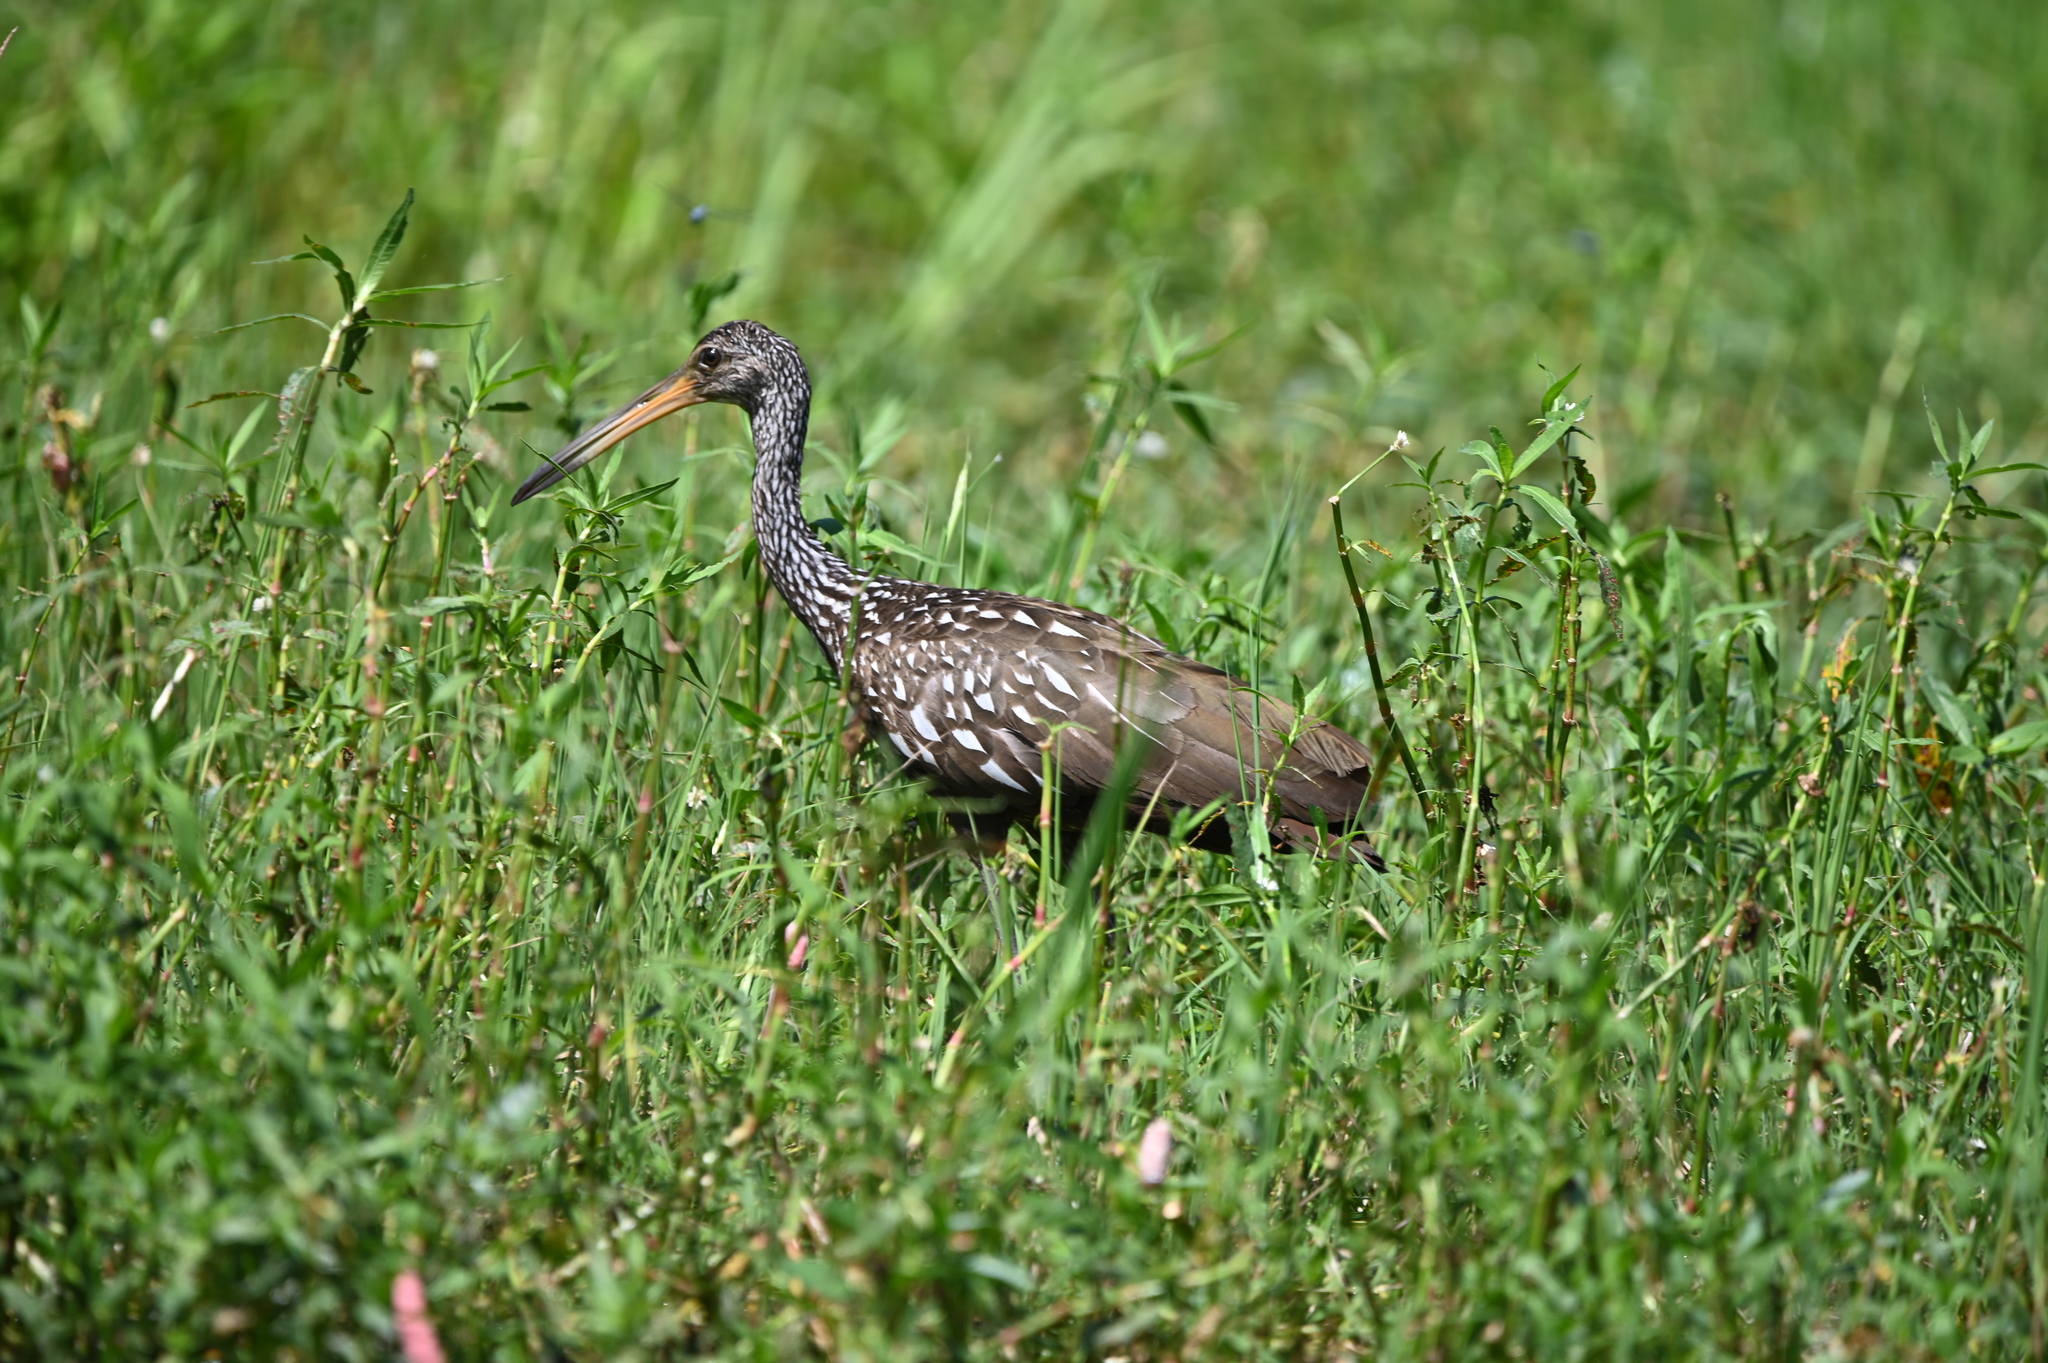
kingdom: Animalia
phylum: Chordata
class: Aves
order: Gruiformes
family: Aramidae
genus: Aramus
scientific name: Aramus guarauna
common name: Limpkin
